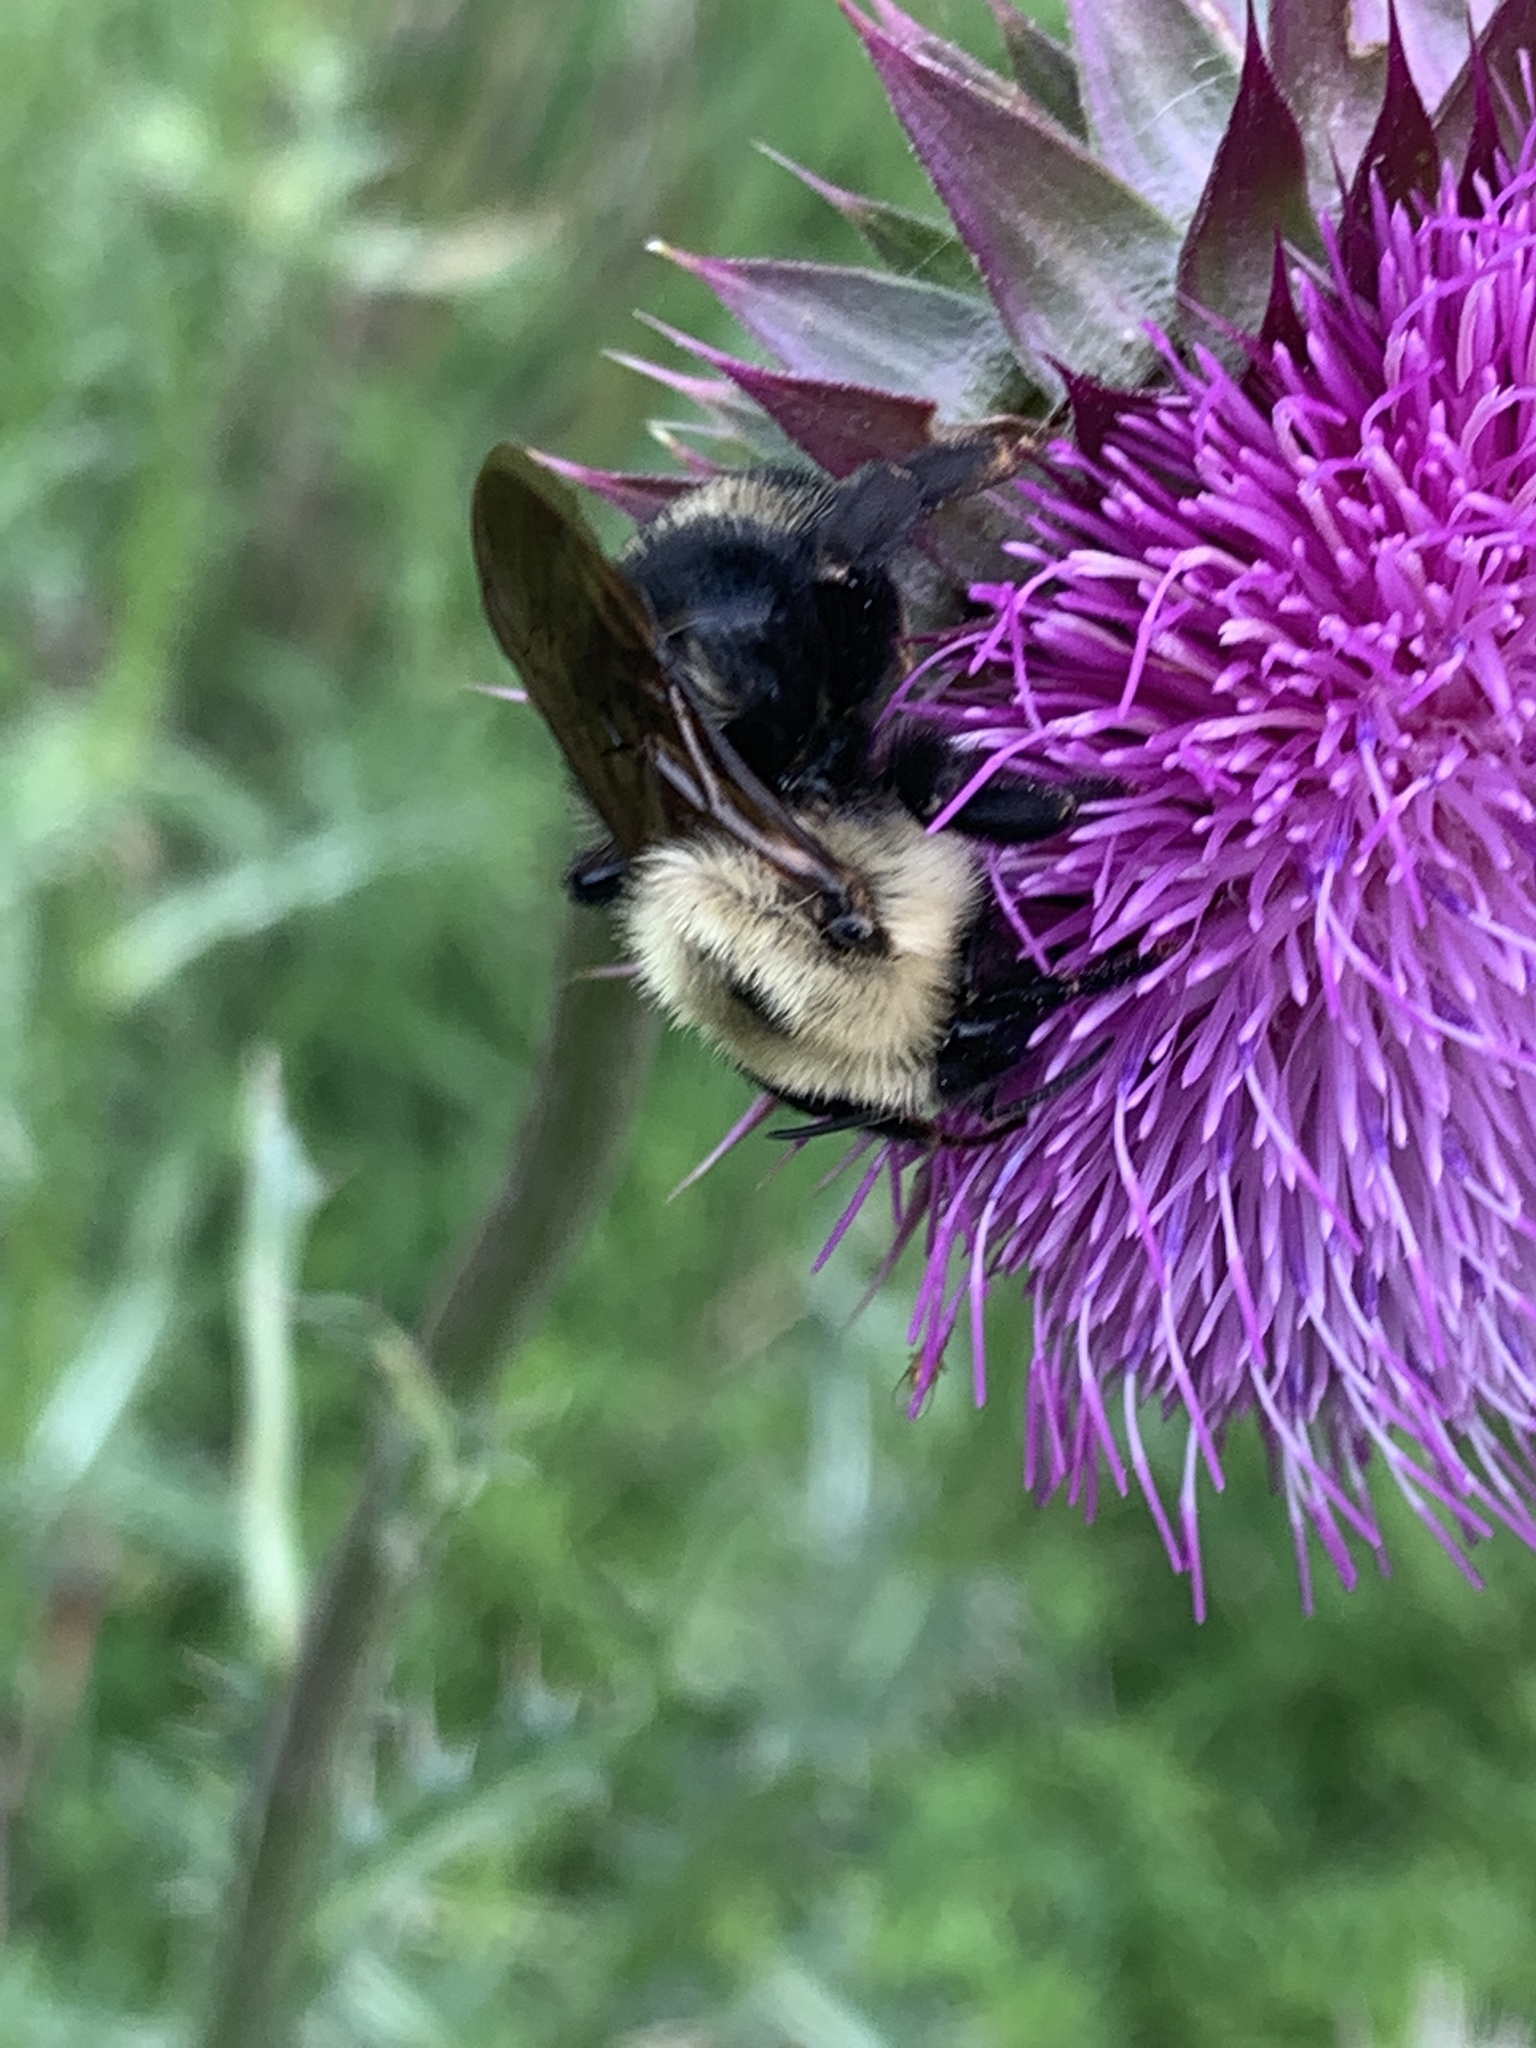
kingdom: Animalia
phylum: Arthropoda
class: Insecta
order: Hymenoptera
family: Apidae
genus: Bombus
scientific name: Bombus citrinus
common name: Lemon cuckoo bumble bee
